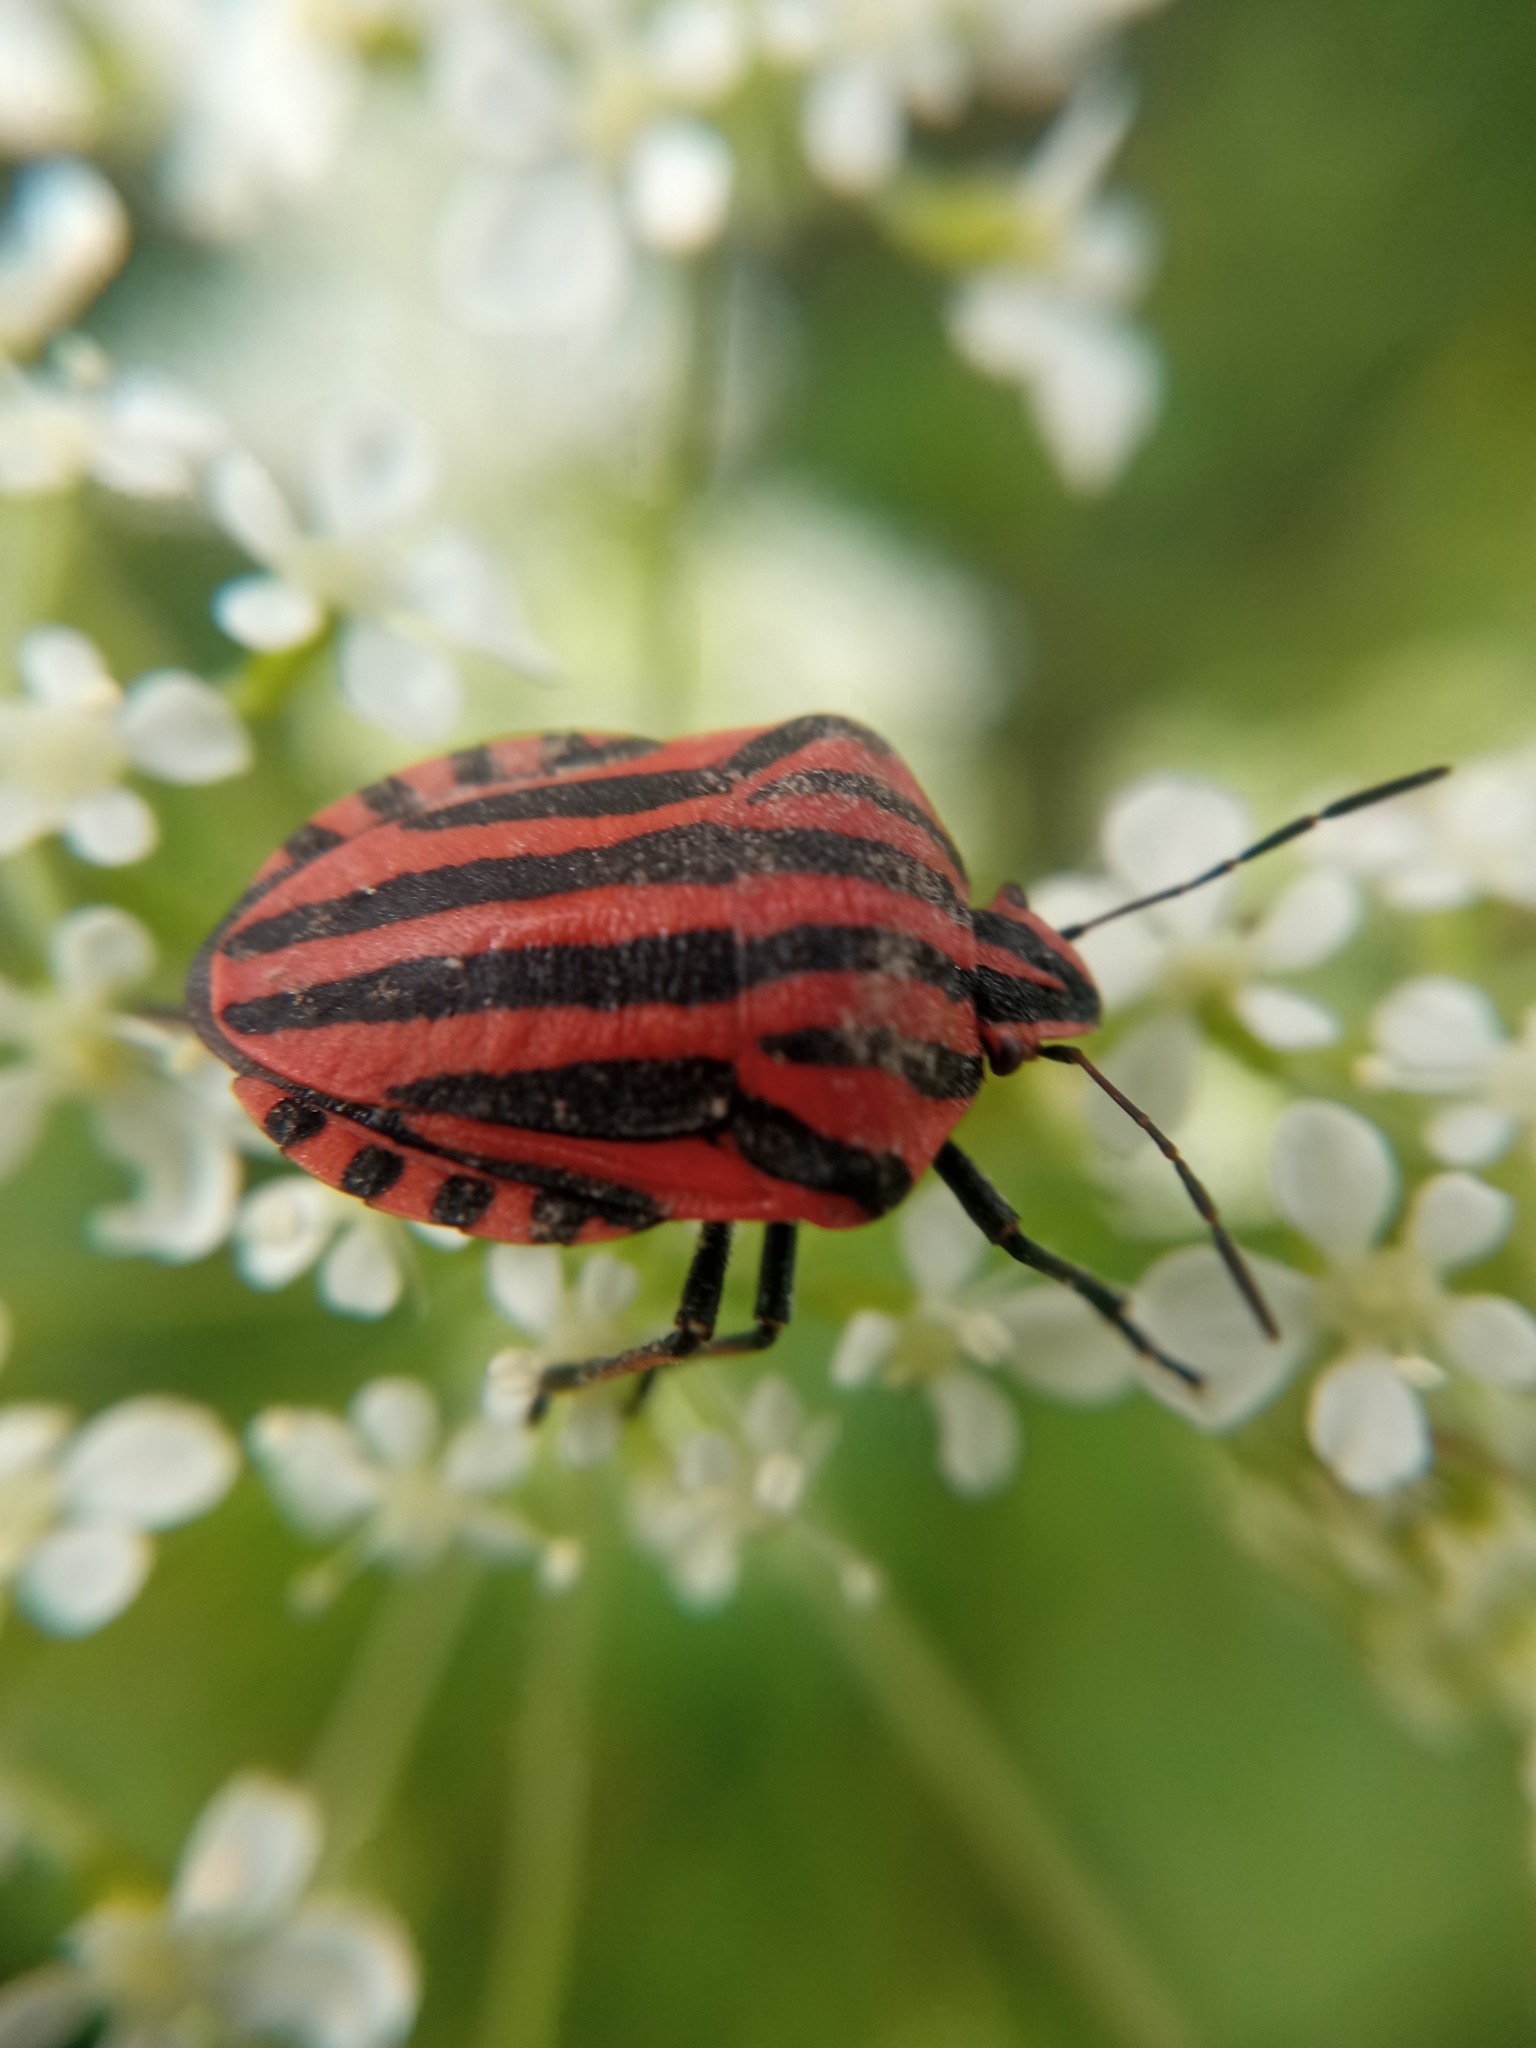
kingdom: Animalia
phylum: Arthropoda
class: Insecta
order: Hemiptera
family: Pentatomidae
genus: Graphosoma
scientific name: Graphosoma italicum
